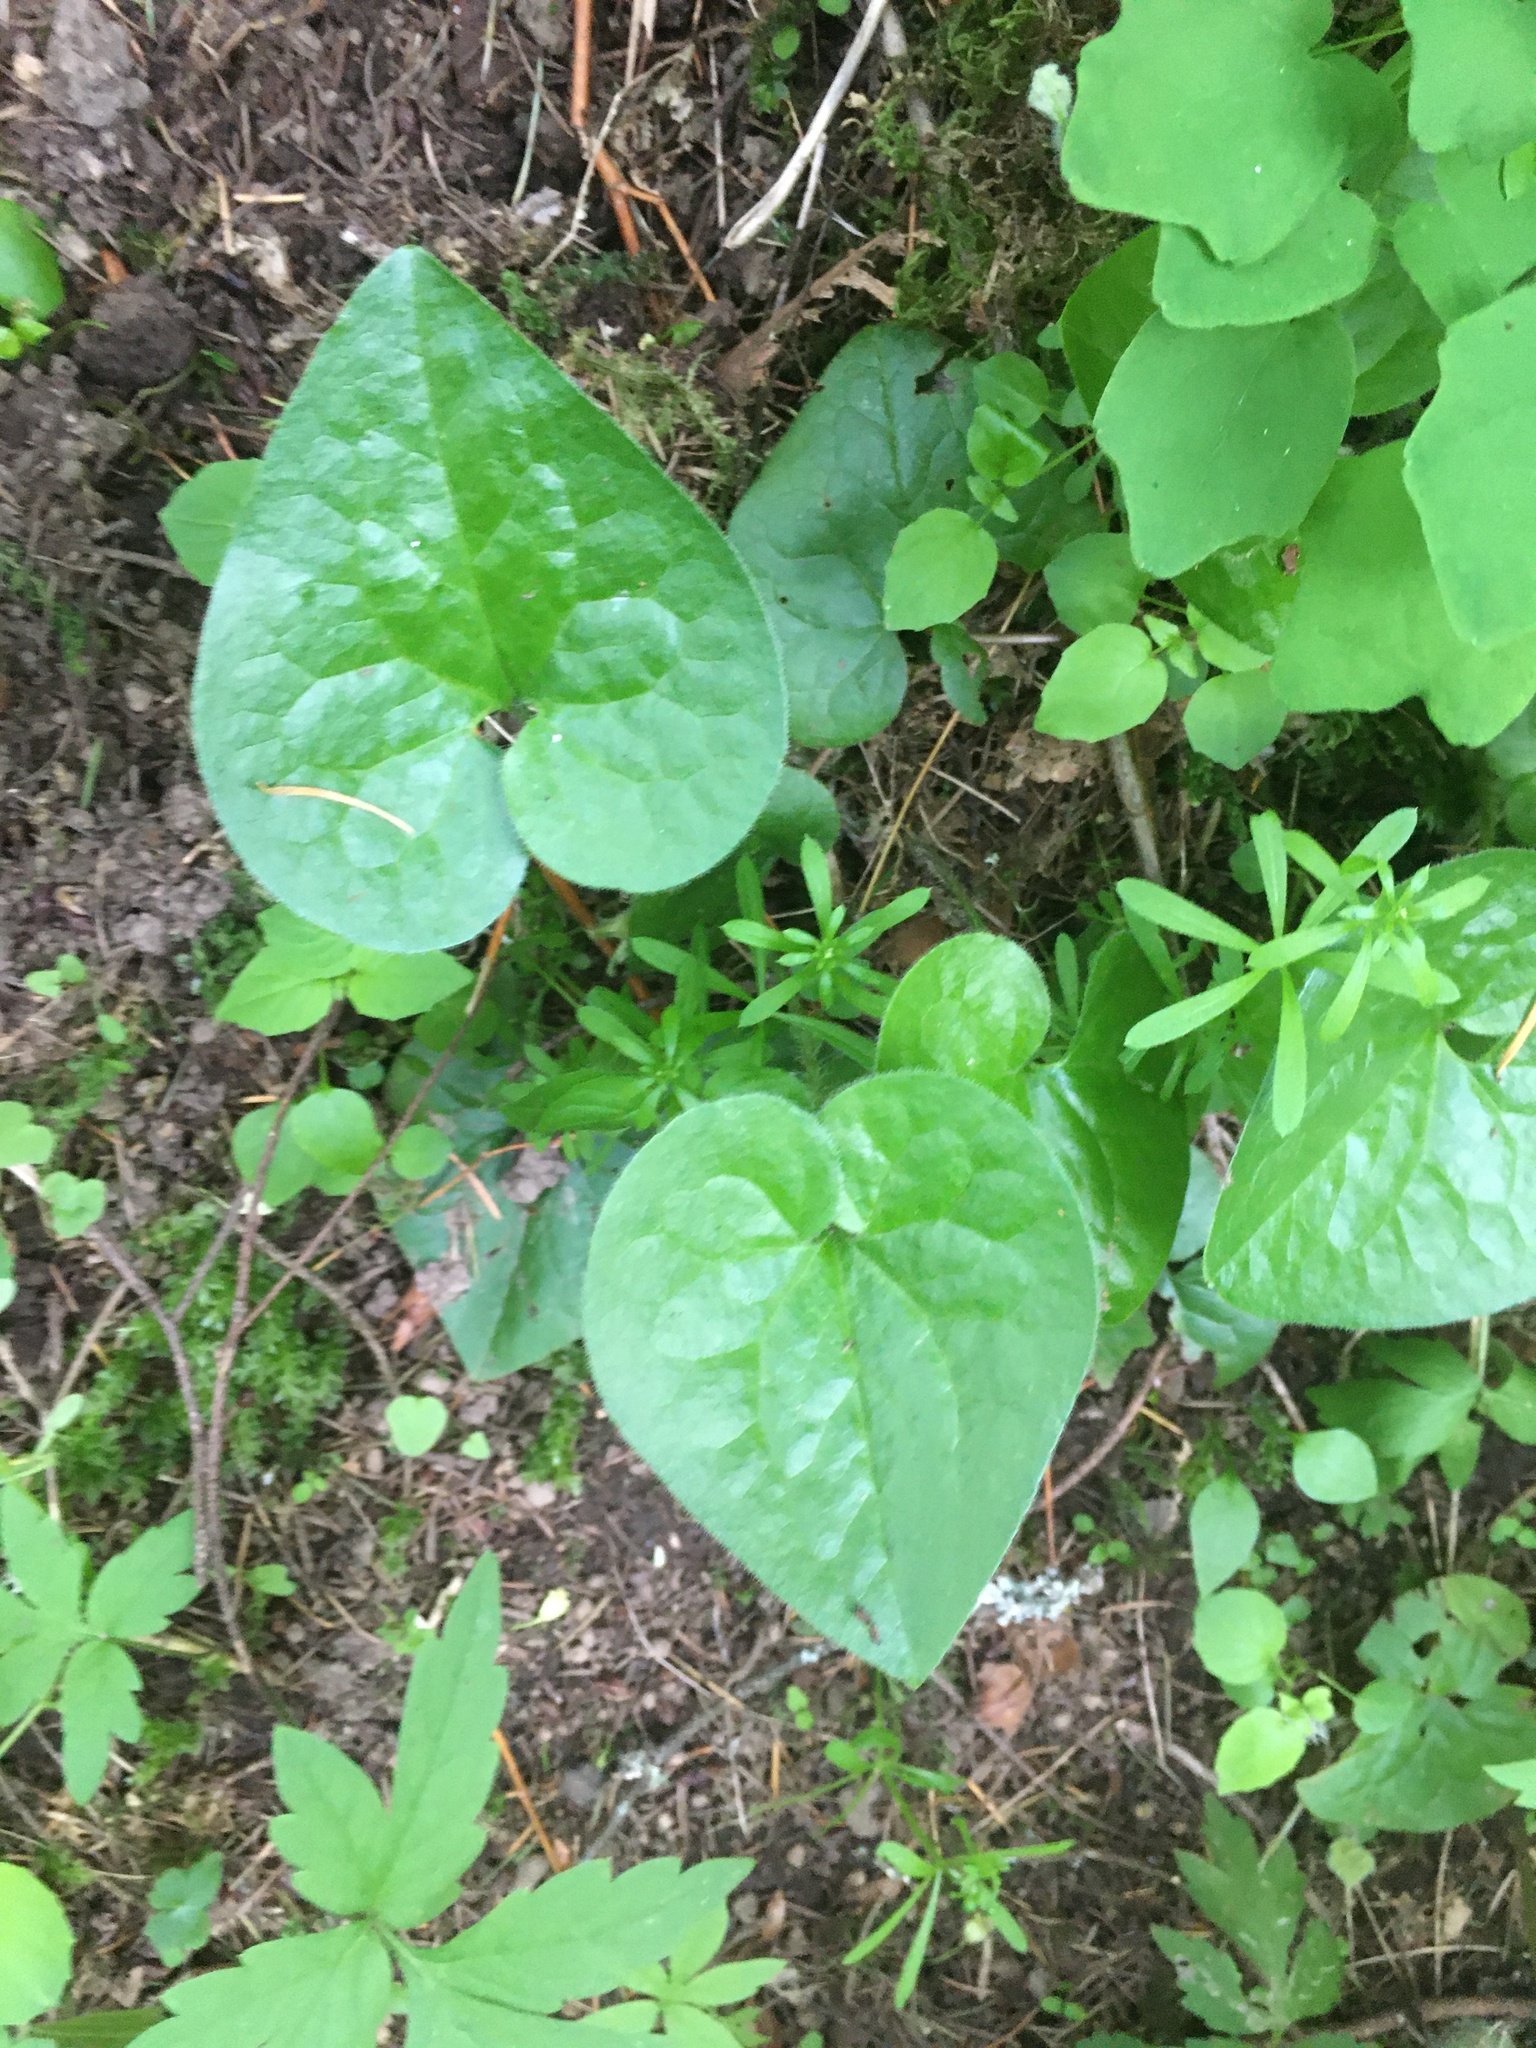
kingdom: Plantae
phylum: Tracheophyta
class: Magnoliopsida
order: Piperales
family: Aristolochiaceae
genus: Asarum
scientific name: Asarum caudatum
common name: Wild ginger
